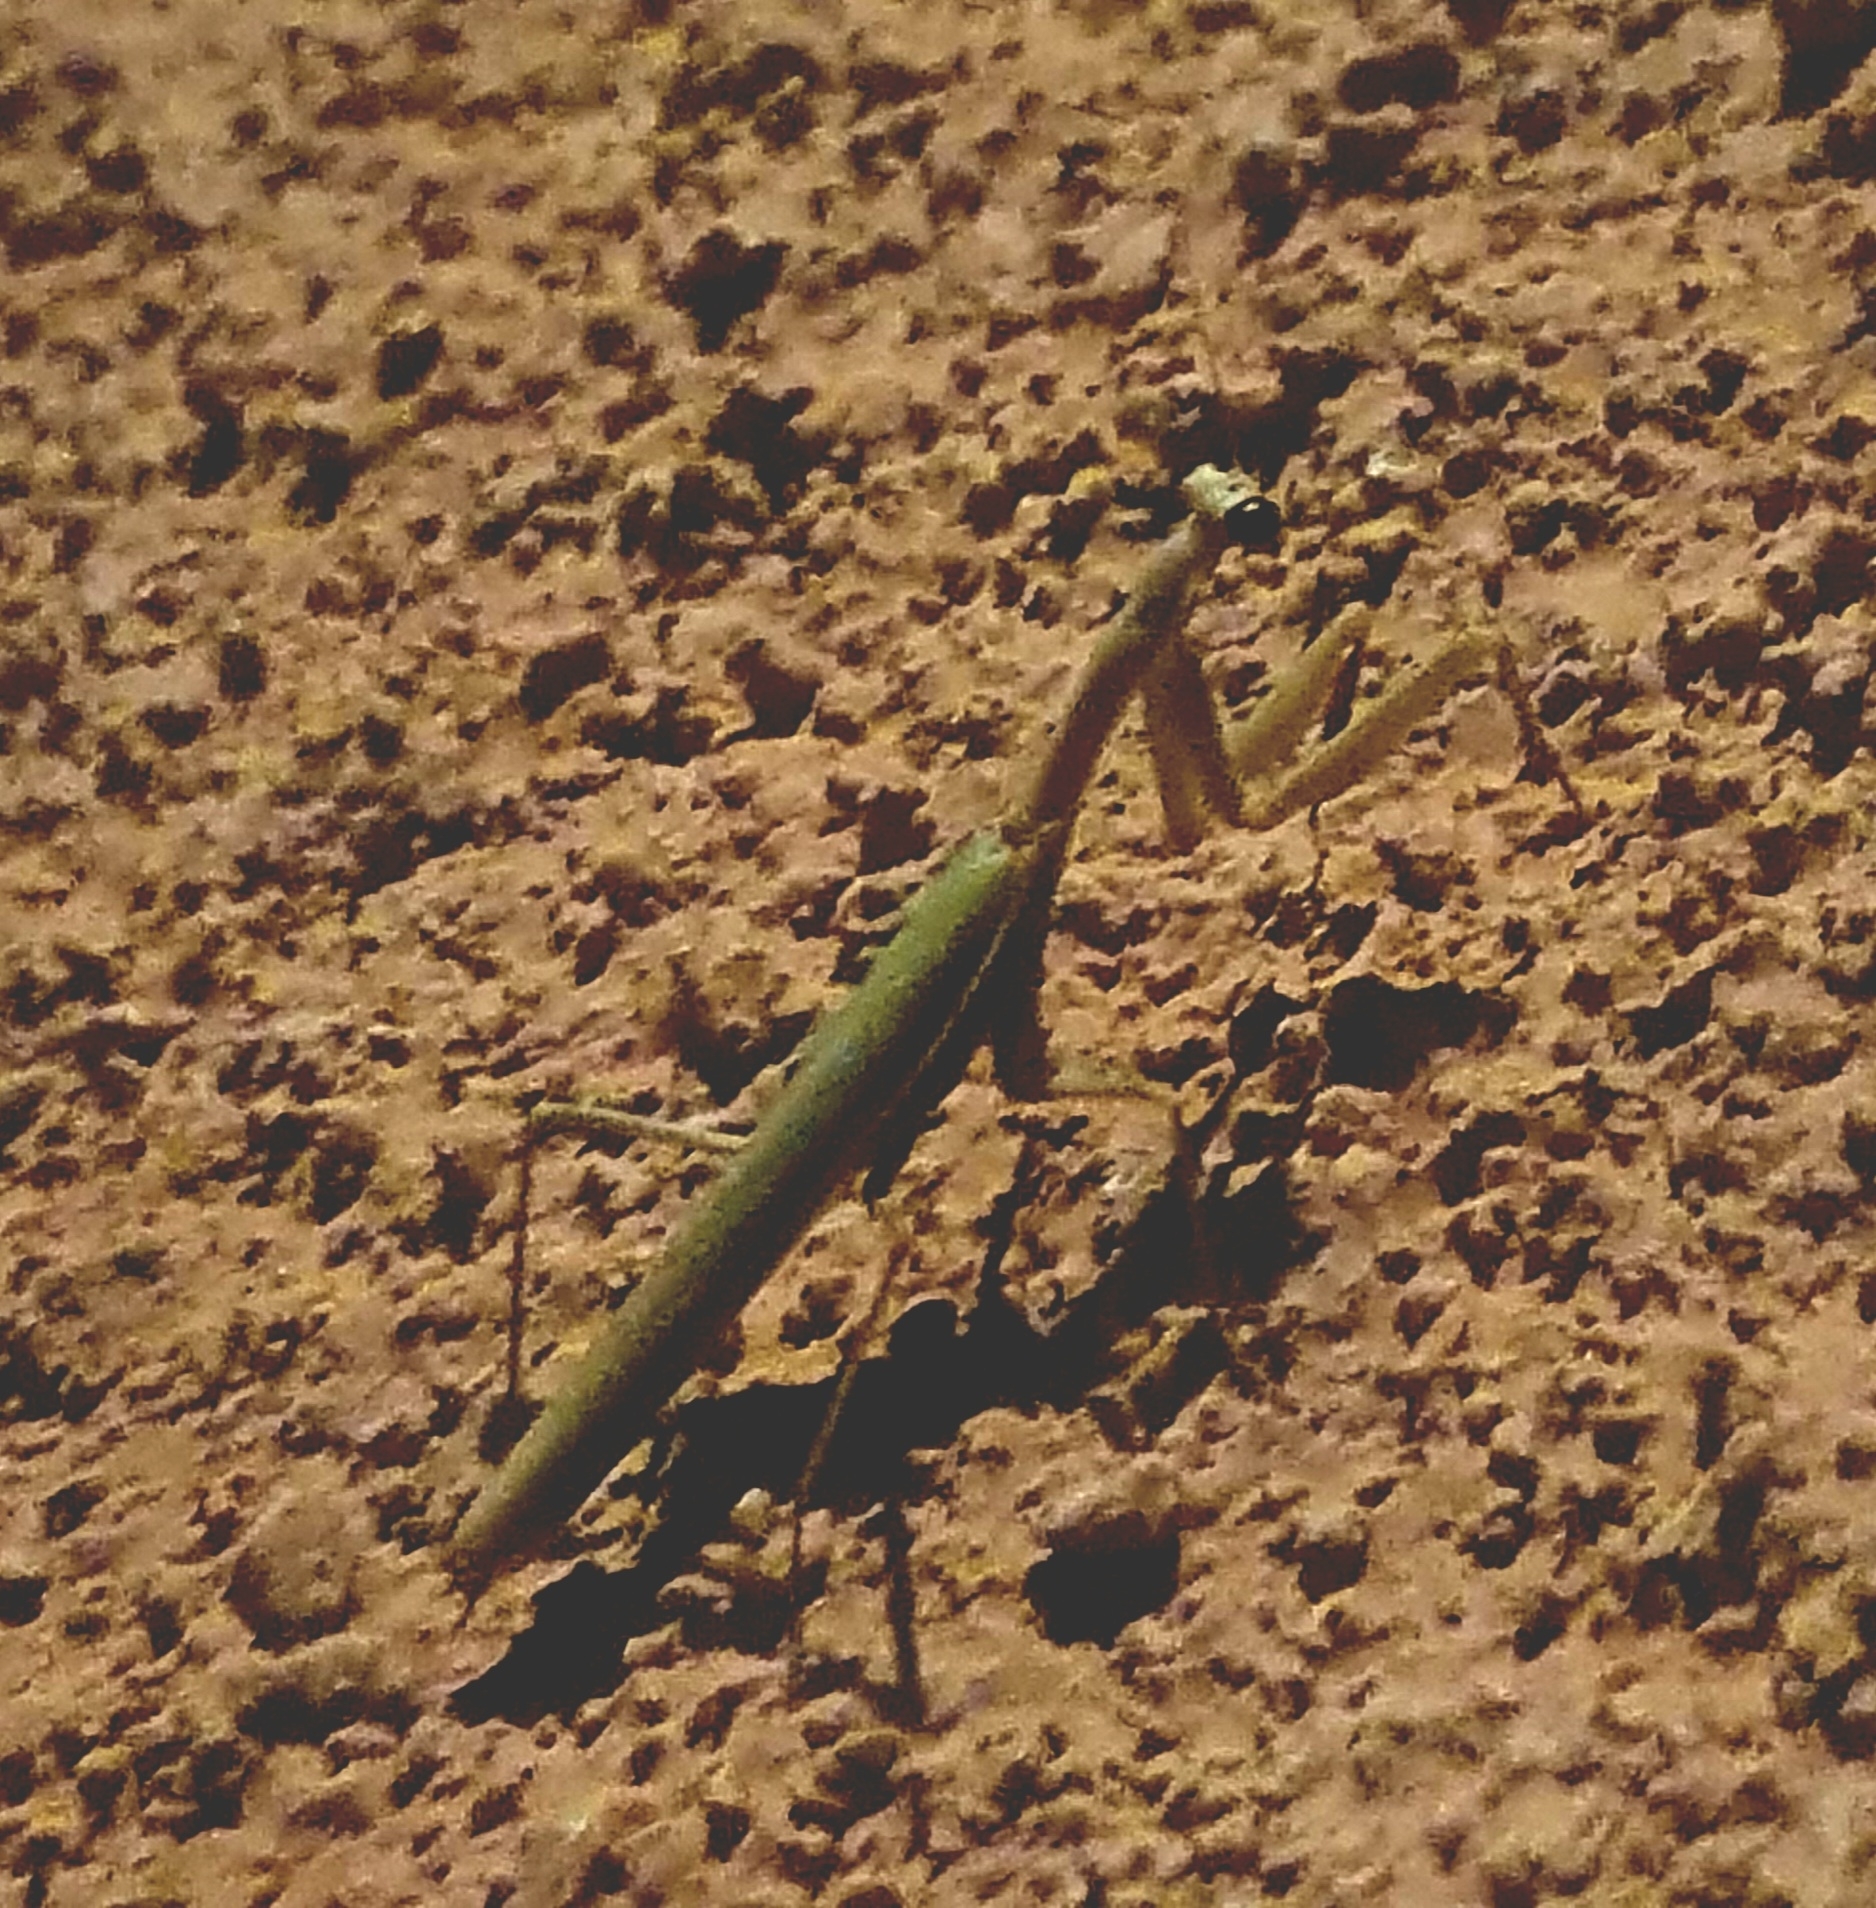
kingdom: Animalia
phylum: Arthropoda
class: Insecta
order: Mantodea
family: Eremiaphilidae
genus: Iris
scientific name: Iris oratoria
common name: Mediterranean mantis
